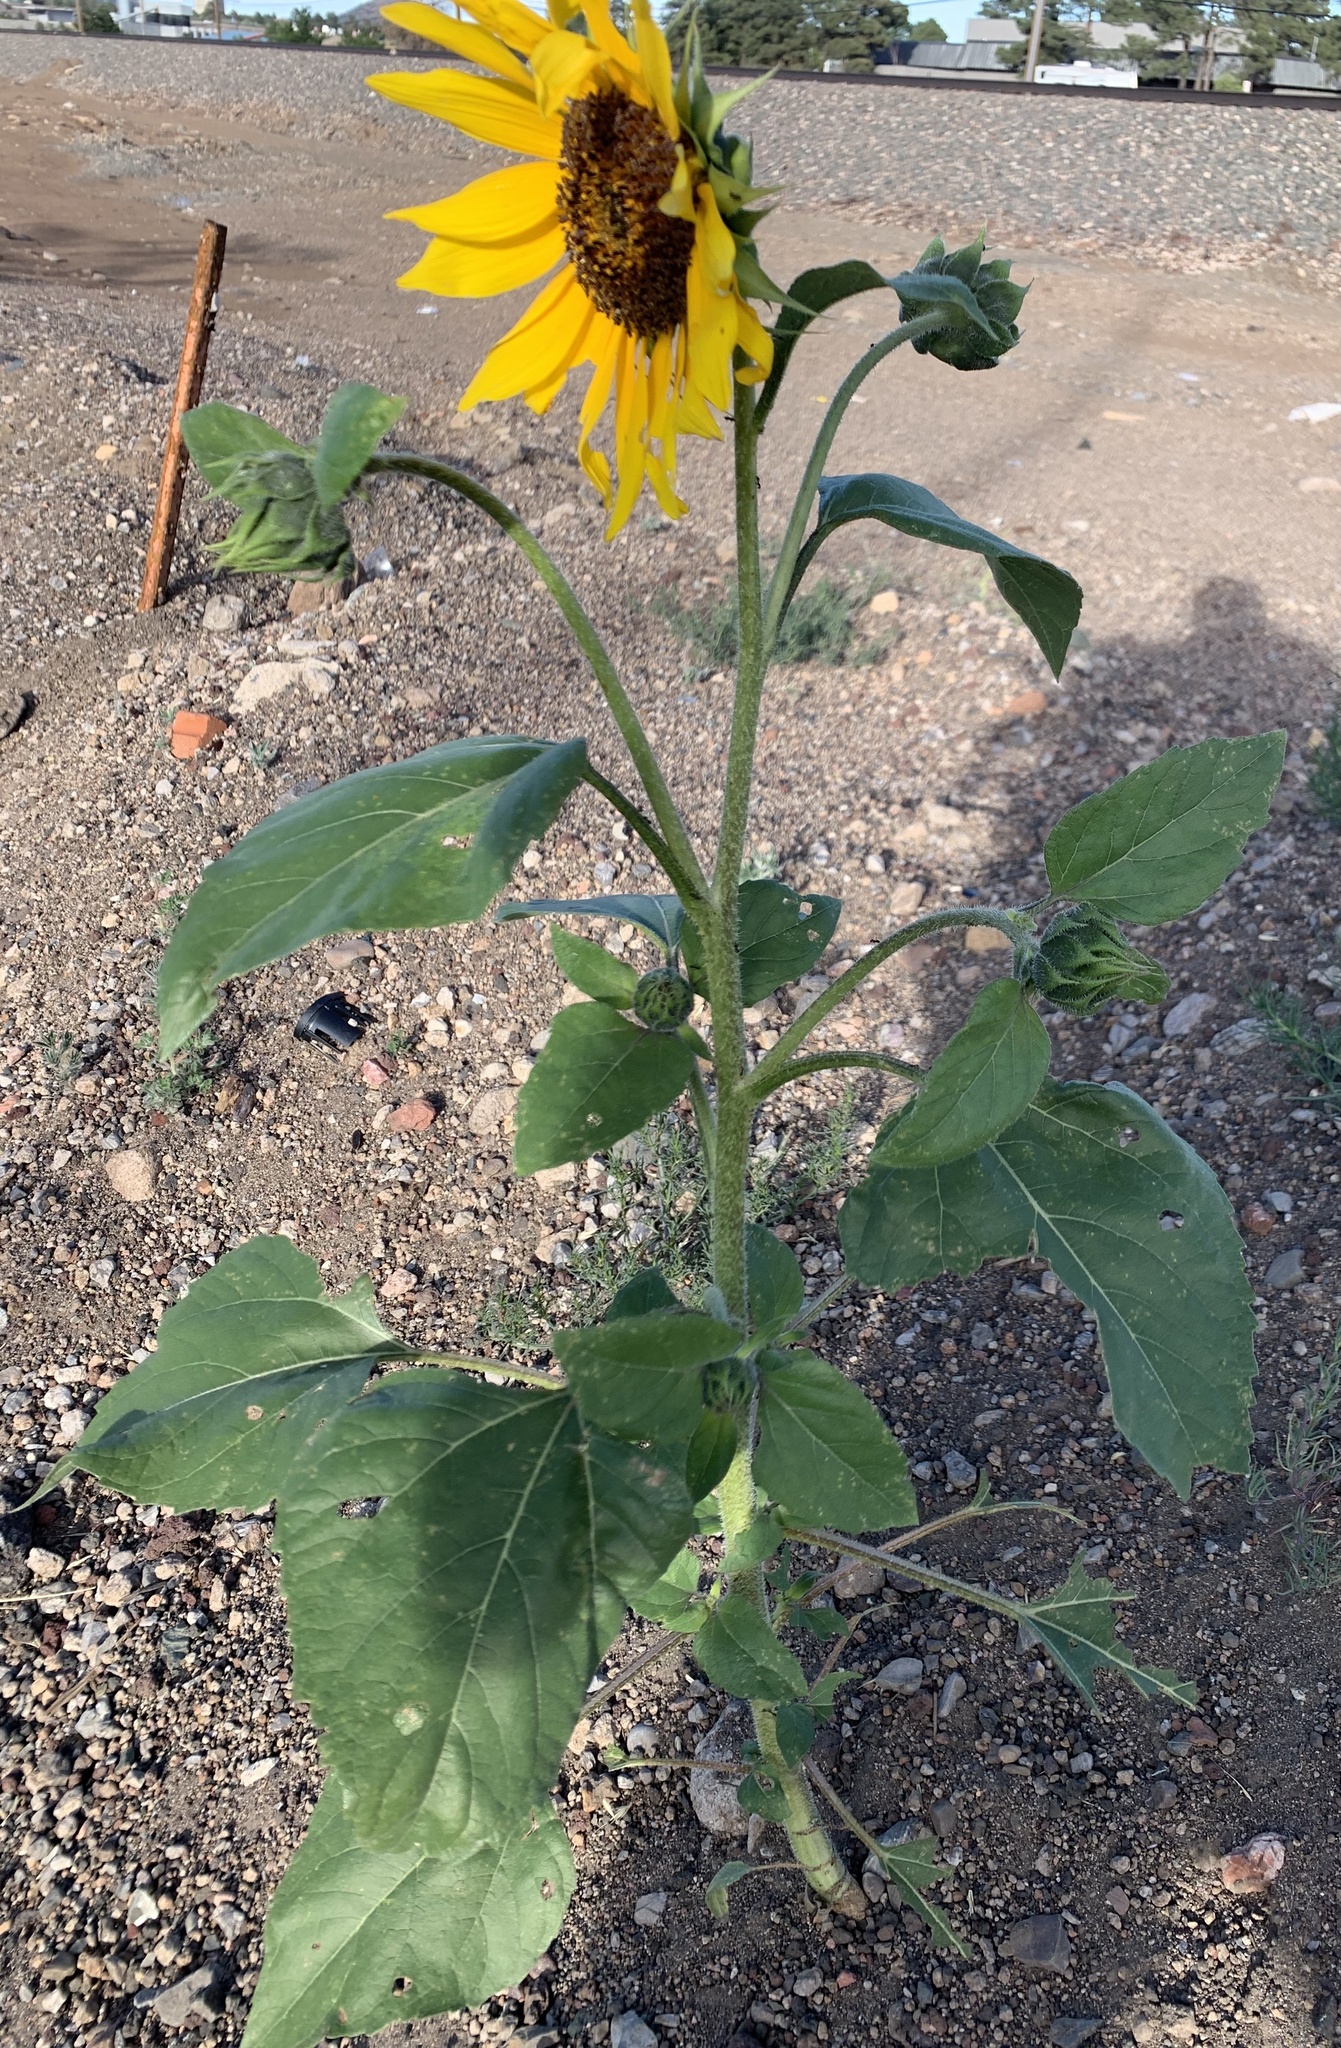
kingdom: Plantae
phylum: Tracheophyta
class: Magnoliopsida
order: Asterales
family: Asteraceae
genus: Helianthus
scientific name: Helianthus annuus
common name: Sunflower
